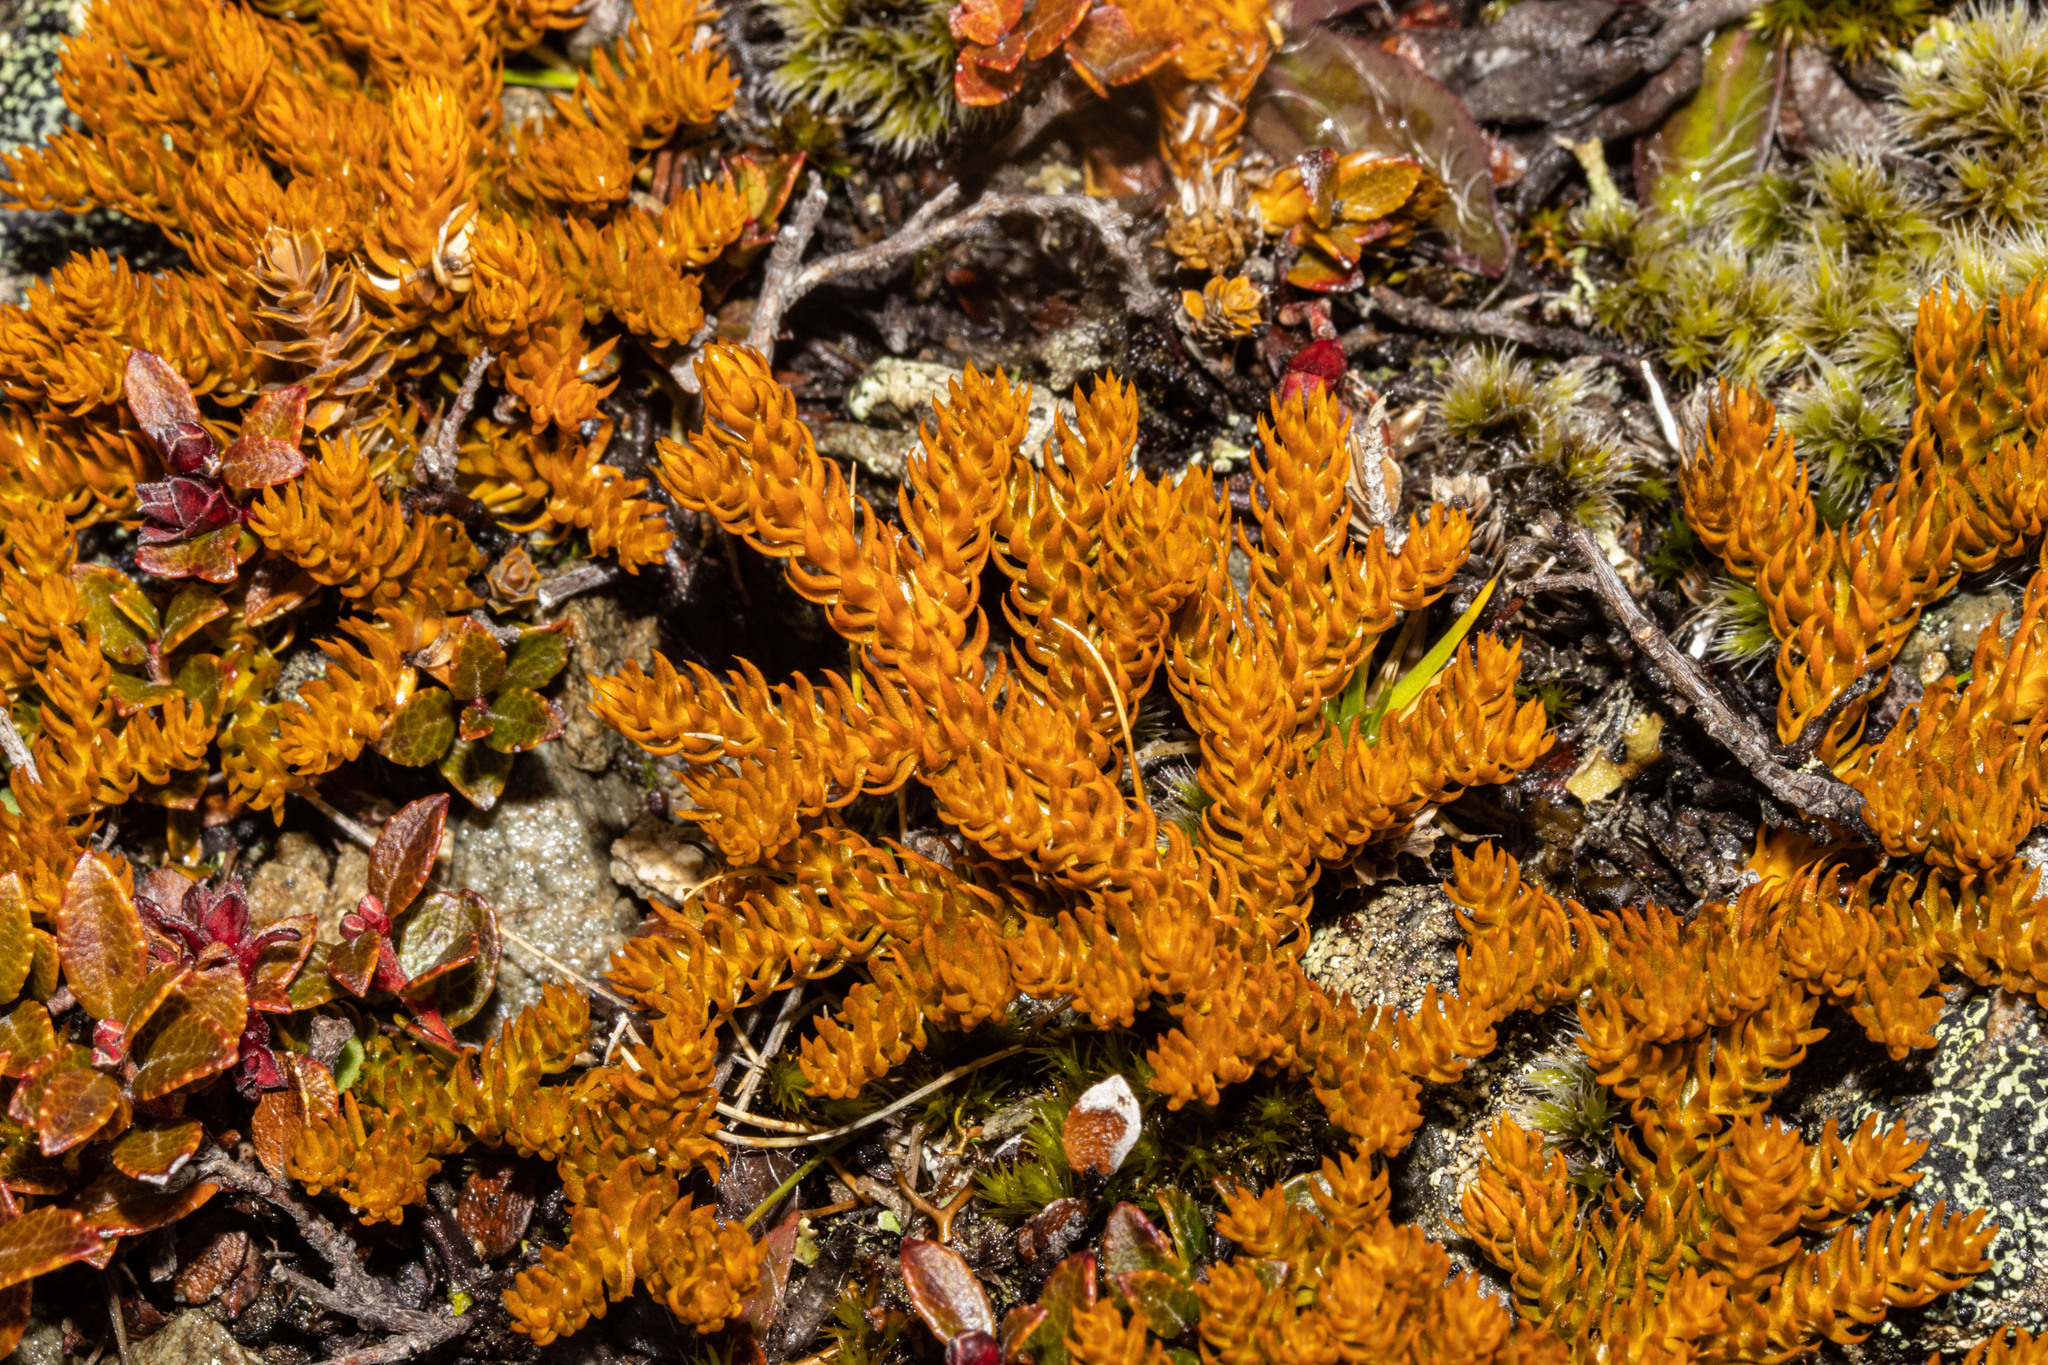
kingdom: Plantae
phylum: Tracheophyta
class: Lycopodiopsida
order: Lycopodiales
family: Lycopodiaceae
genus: Austrolycopodium
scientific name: Austrolycopodium fastigiatum
